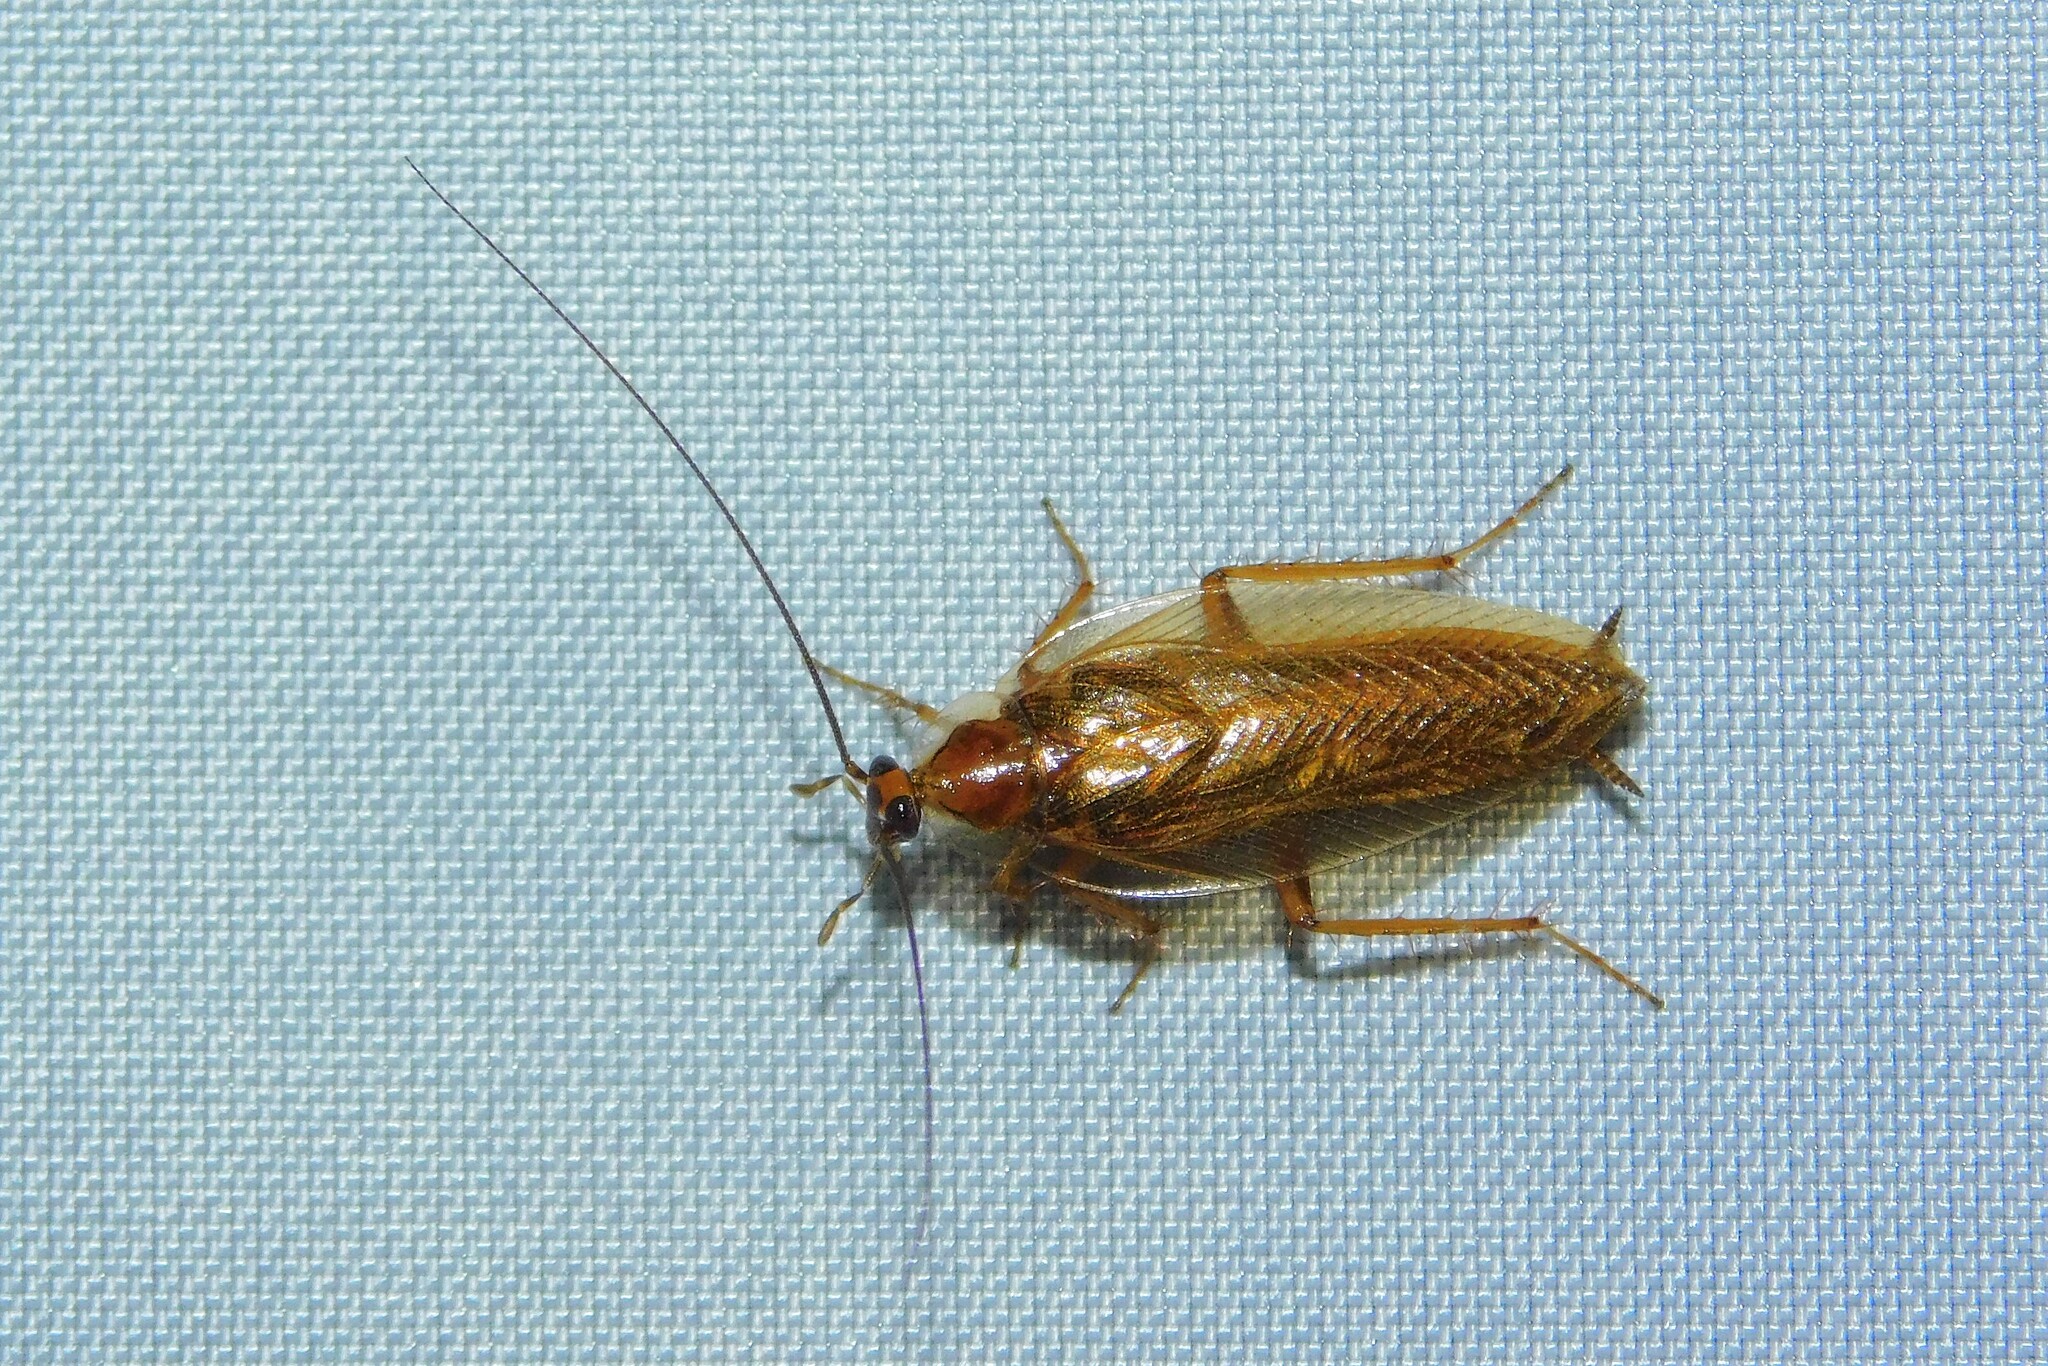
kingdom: Animalia
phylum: Arthropoda
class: Insecta
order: Blattodea
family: Ectobiidae
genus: Ectobius
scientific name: Ectobius vittiventris
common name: Garden cockroach
